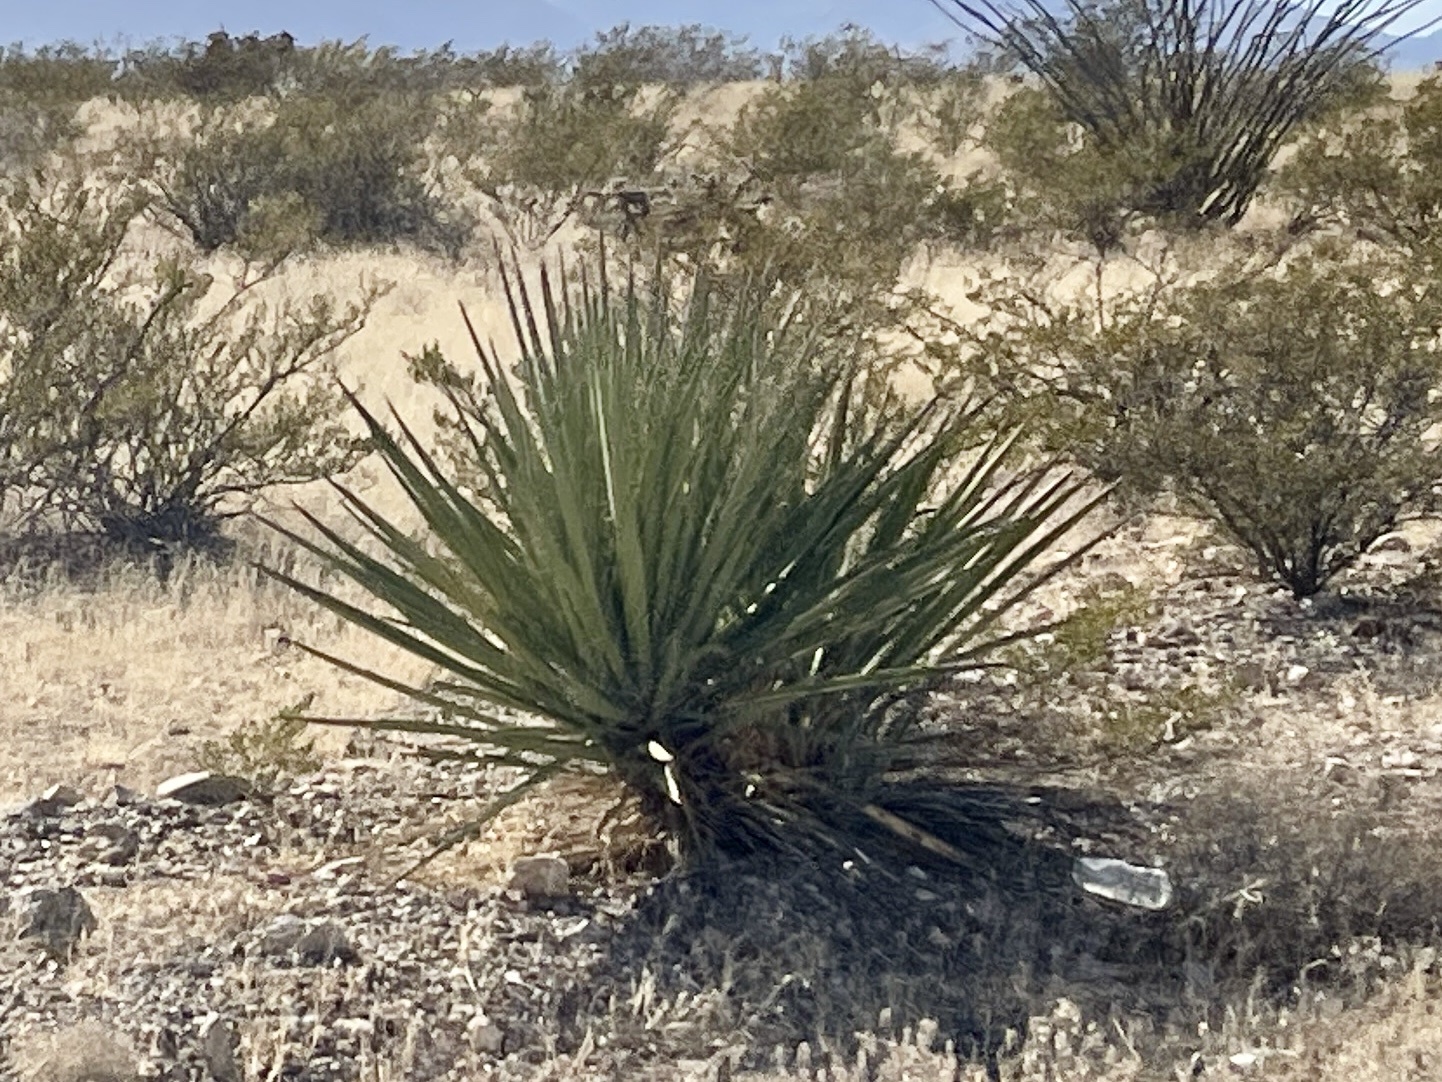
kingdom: Plantae
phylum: Tracheophyta
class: Liliopsida
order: Asparagales
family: Asparagaceae
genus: Yucca
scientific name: Yucca baccata
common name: Banana yucca
